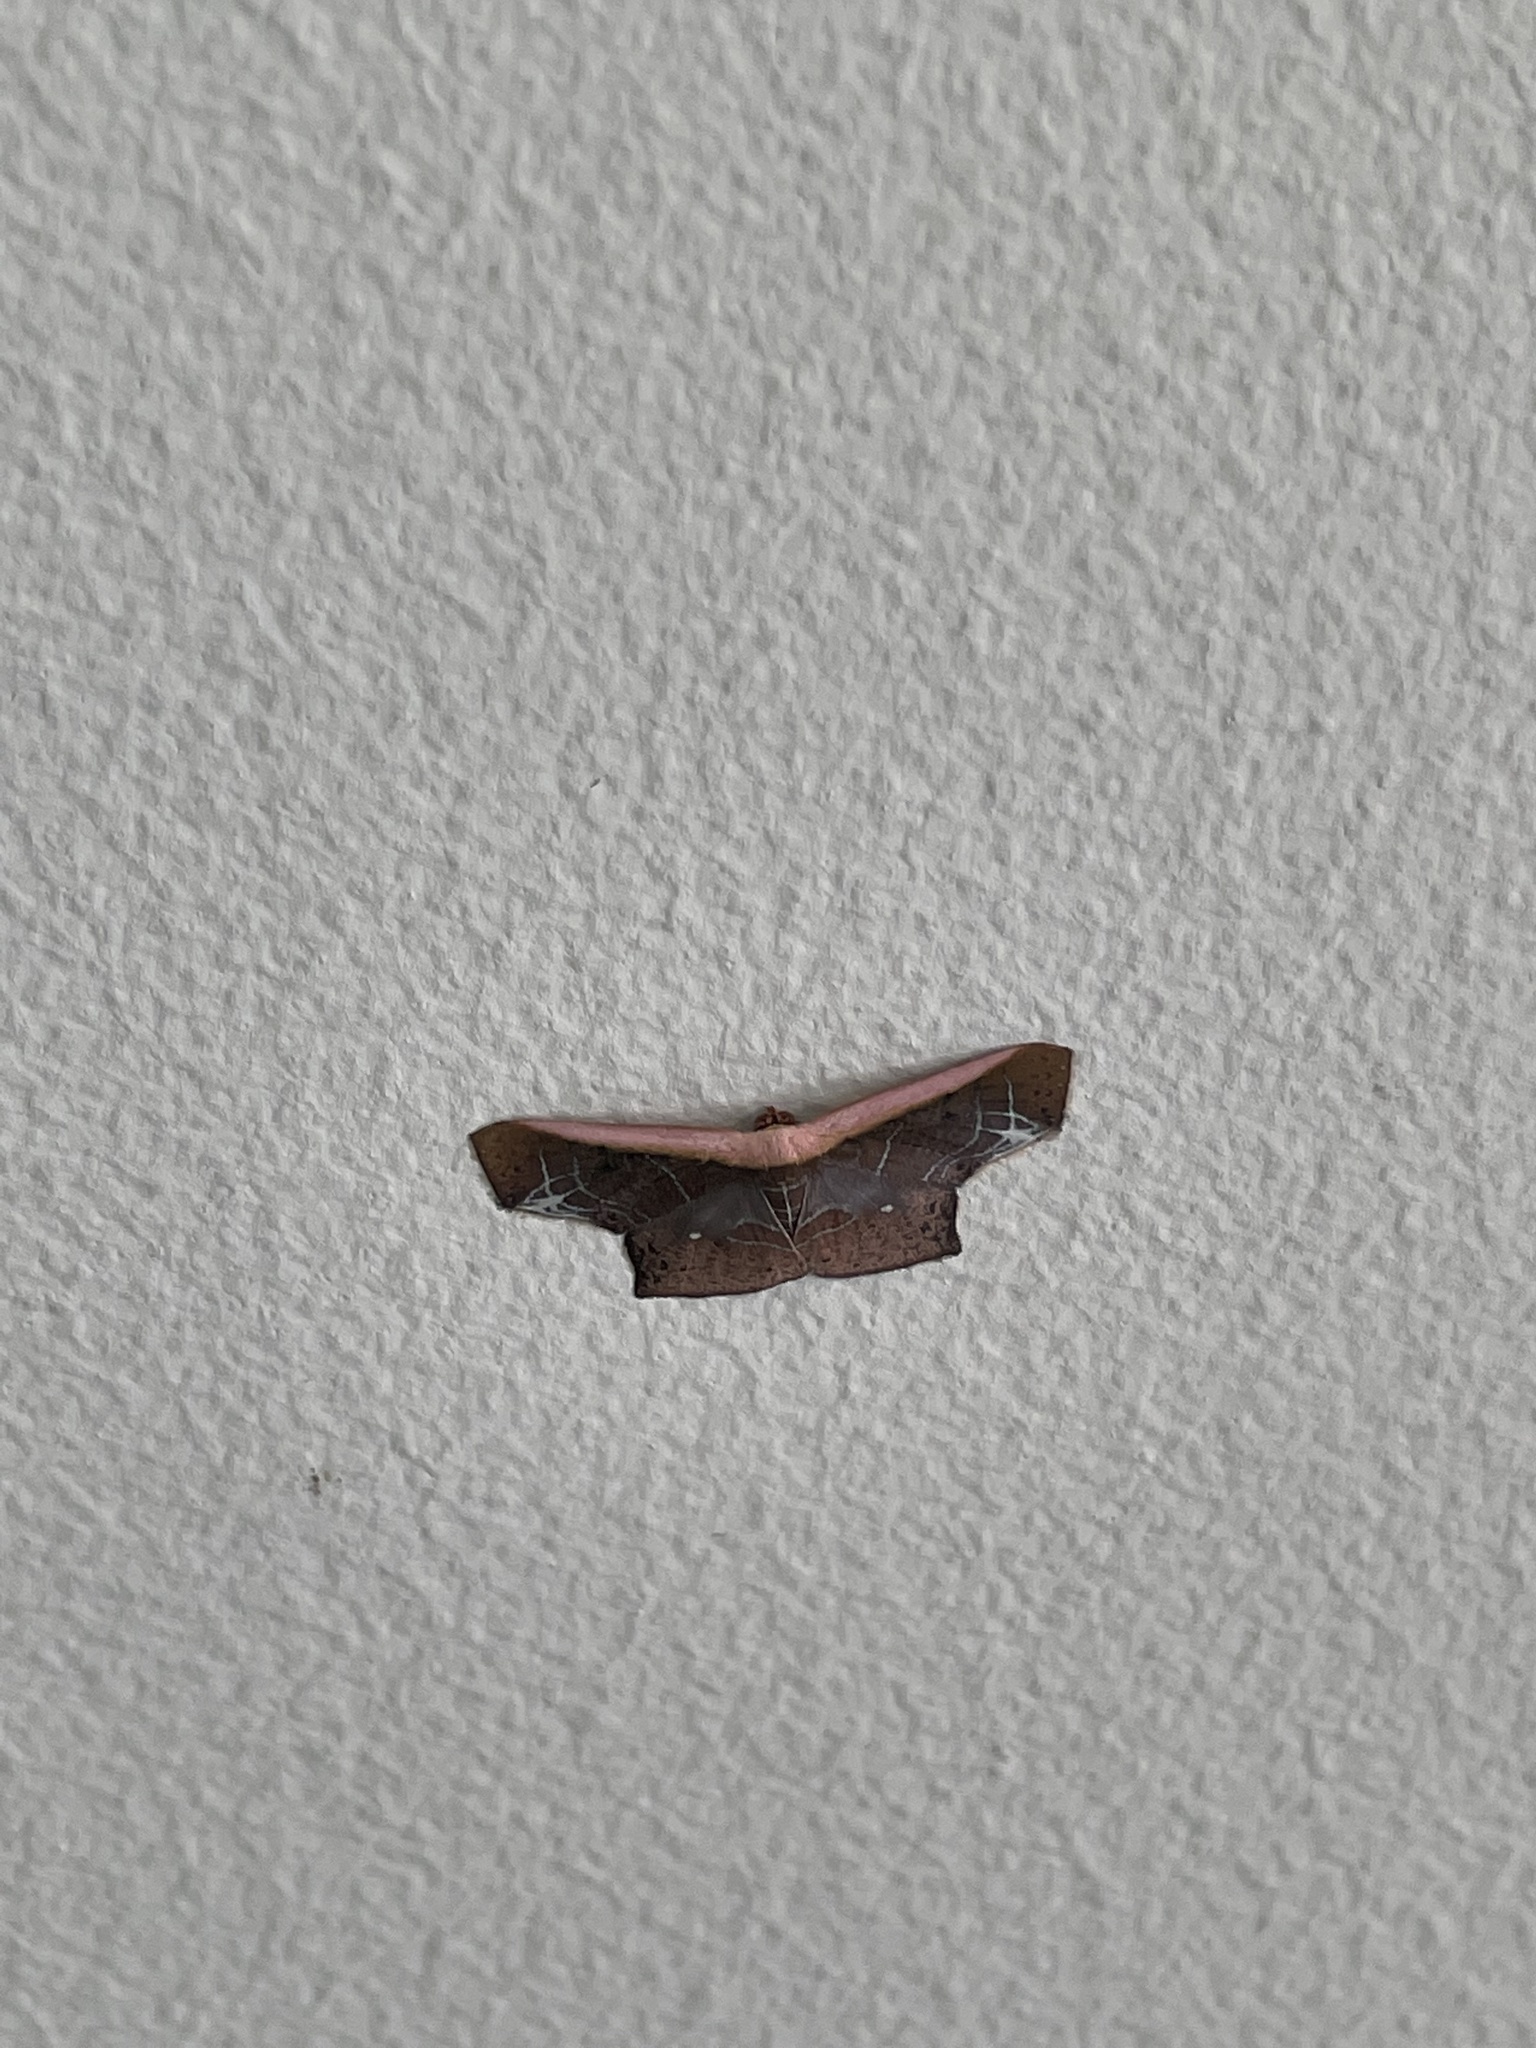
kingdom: Animalia
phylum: Arthropoda
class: Insecta
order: Lepidoptera
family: Geometridae
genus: Tessarotis
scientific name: Tessarotis rubrata
